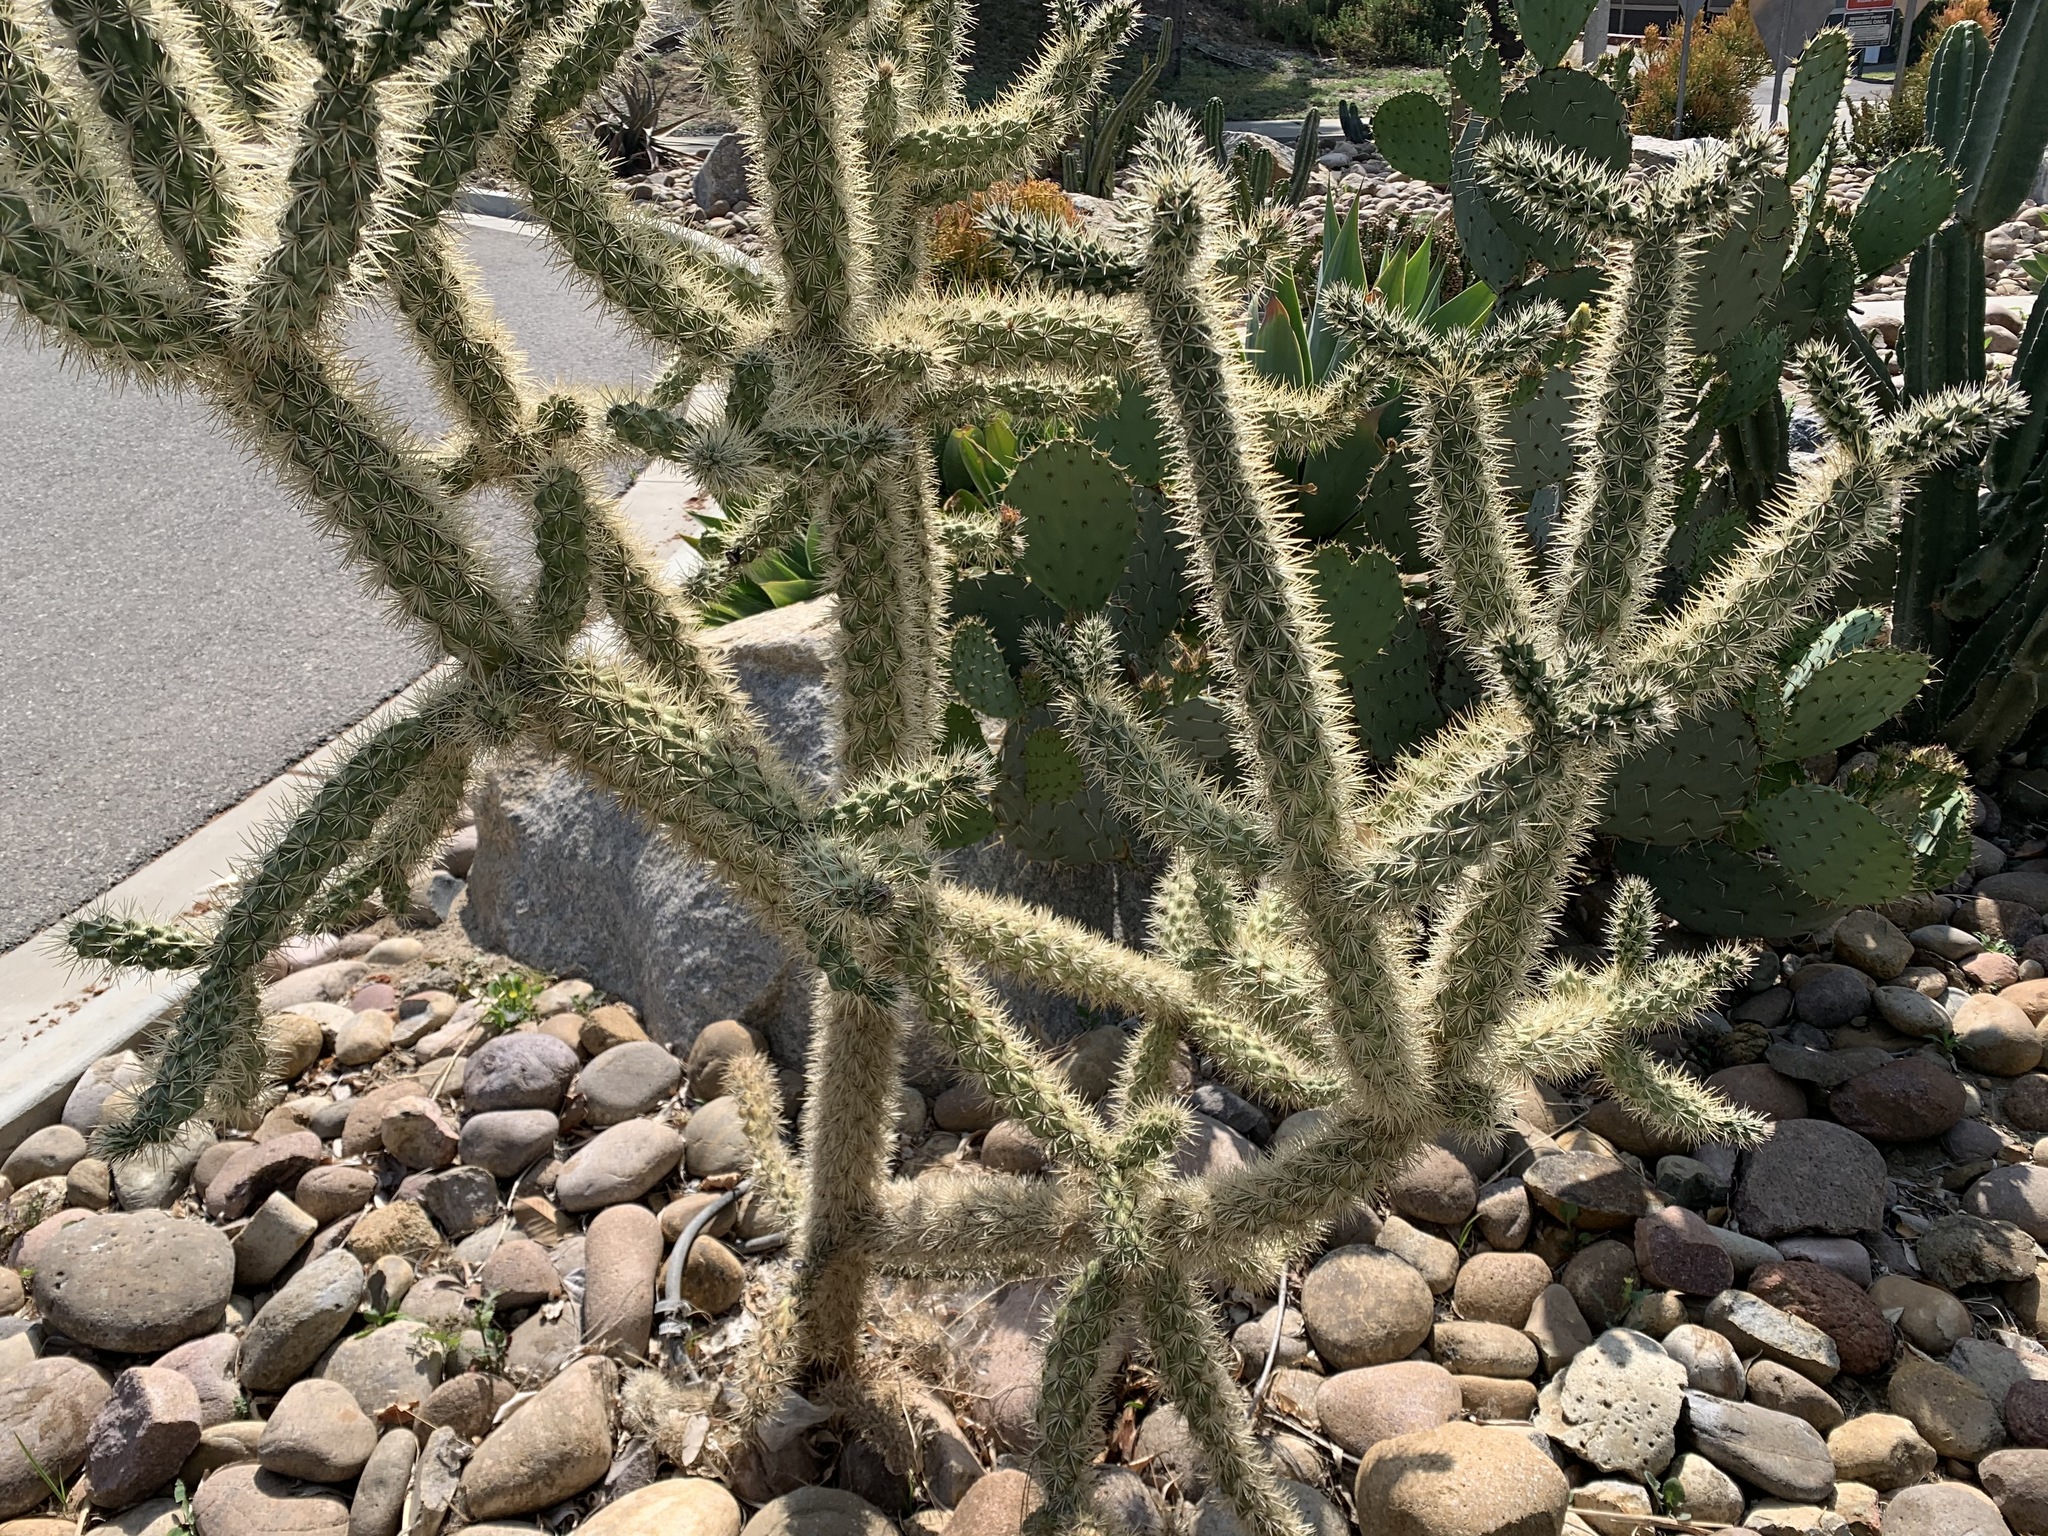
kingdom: Animalia
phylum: Arthropoda
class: Insecta
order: Hemiptera
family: Coreidae
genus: Chelinidea
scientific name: Chelinidea vittiger
